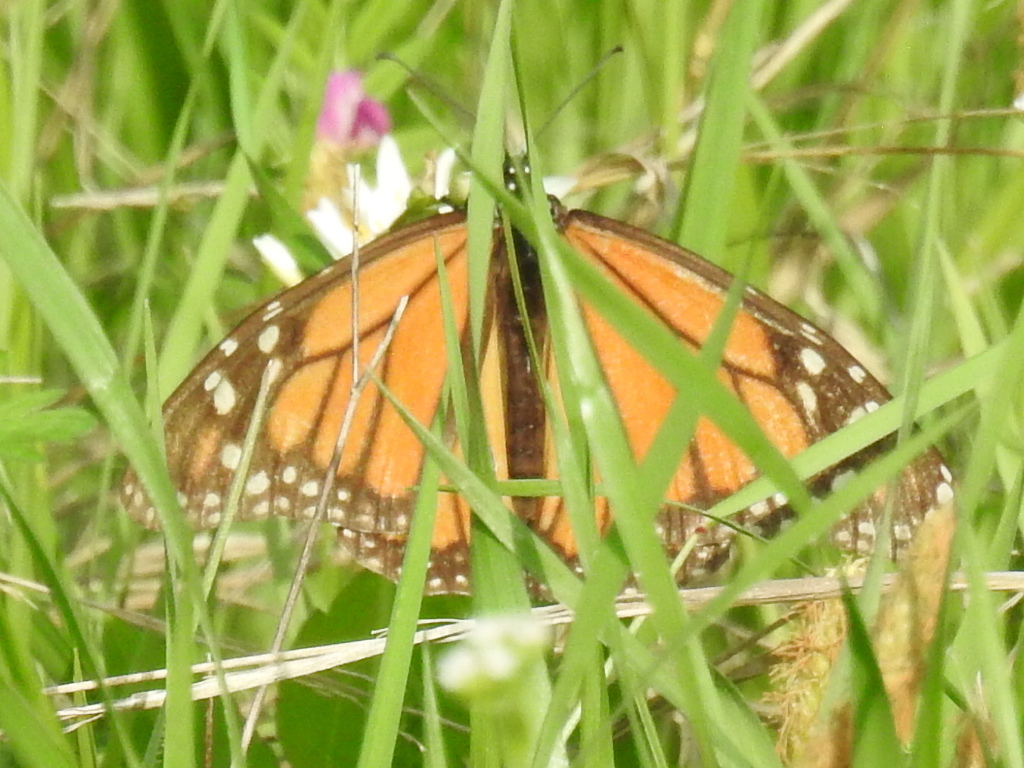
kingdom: Animalia
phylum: Arthropoda
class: Insecta
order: Lepidoptera
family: Nymphalidae
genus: Danaus
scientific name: Danaus plexippus
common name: Monarch
